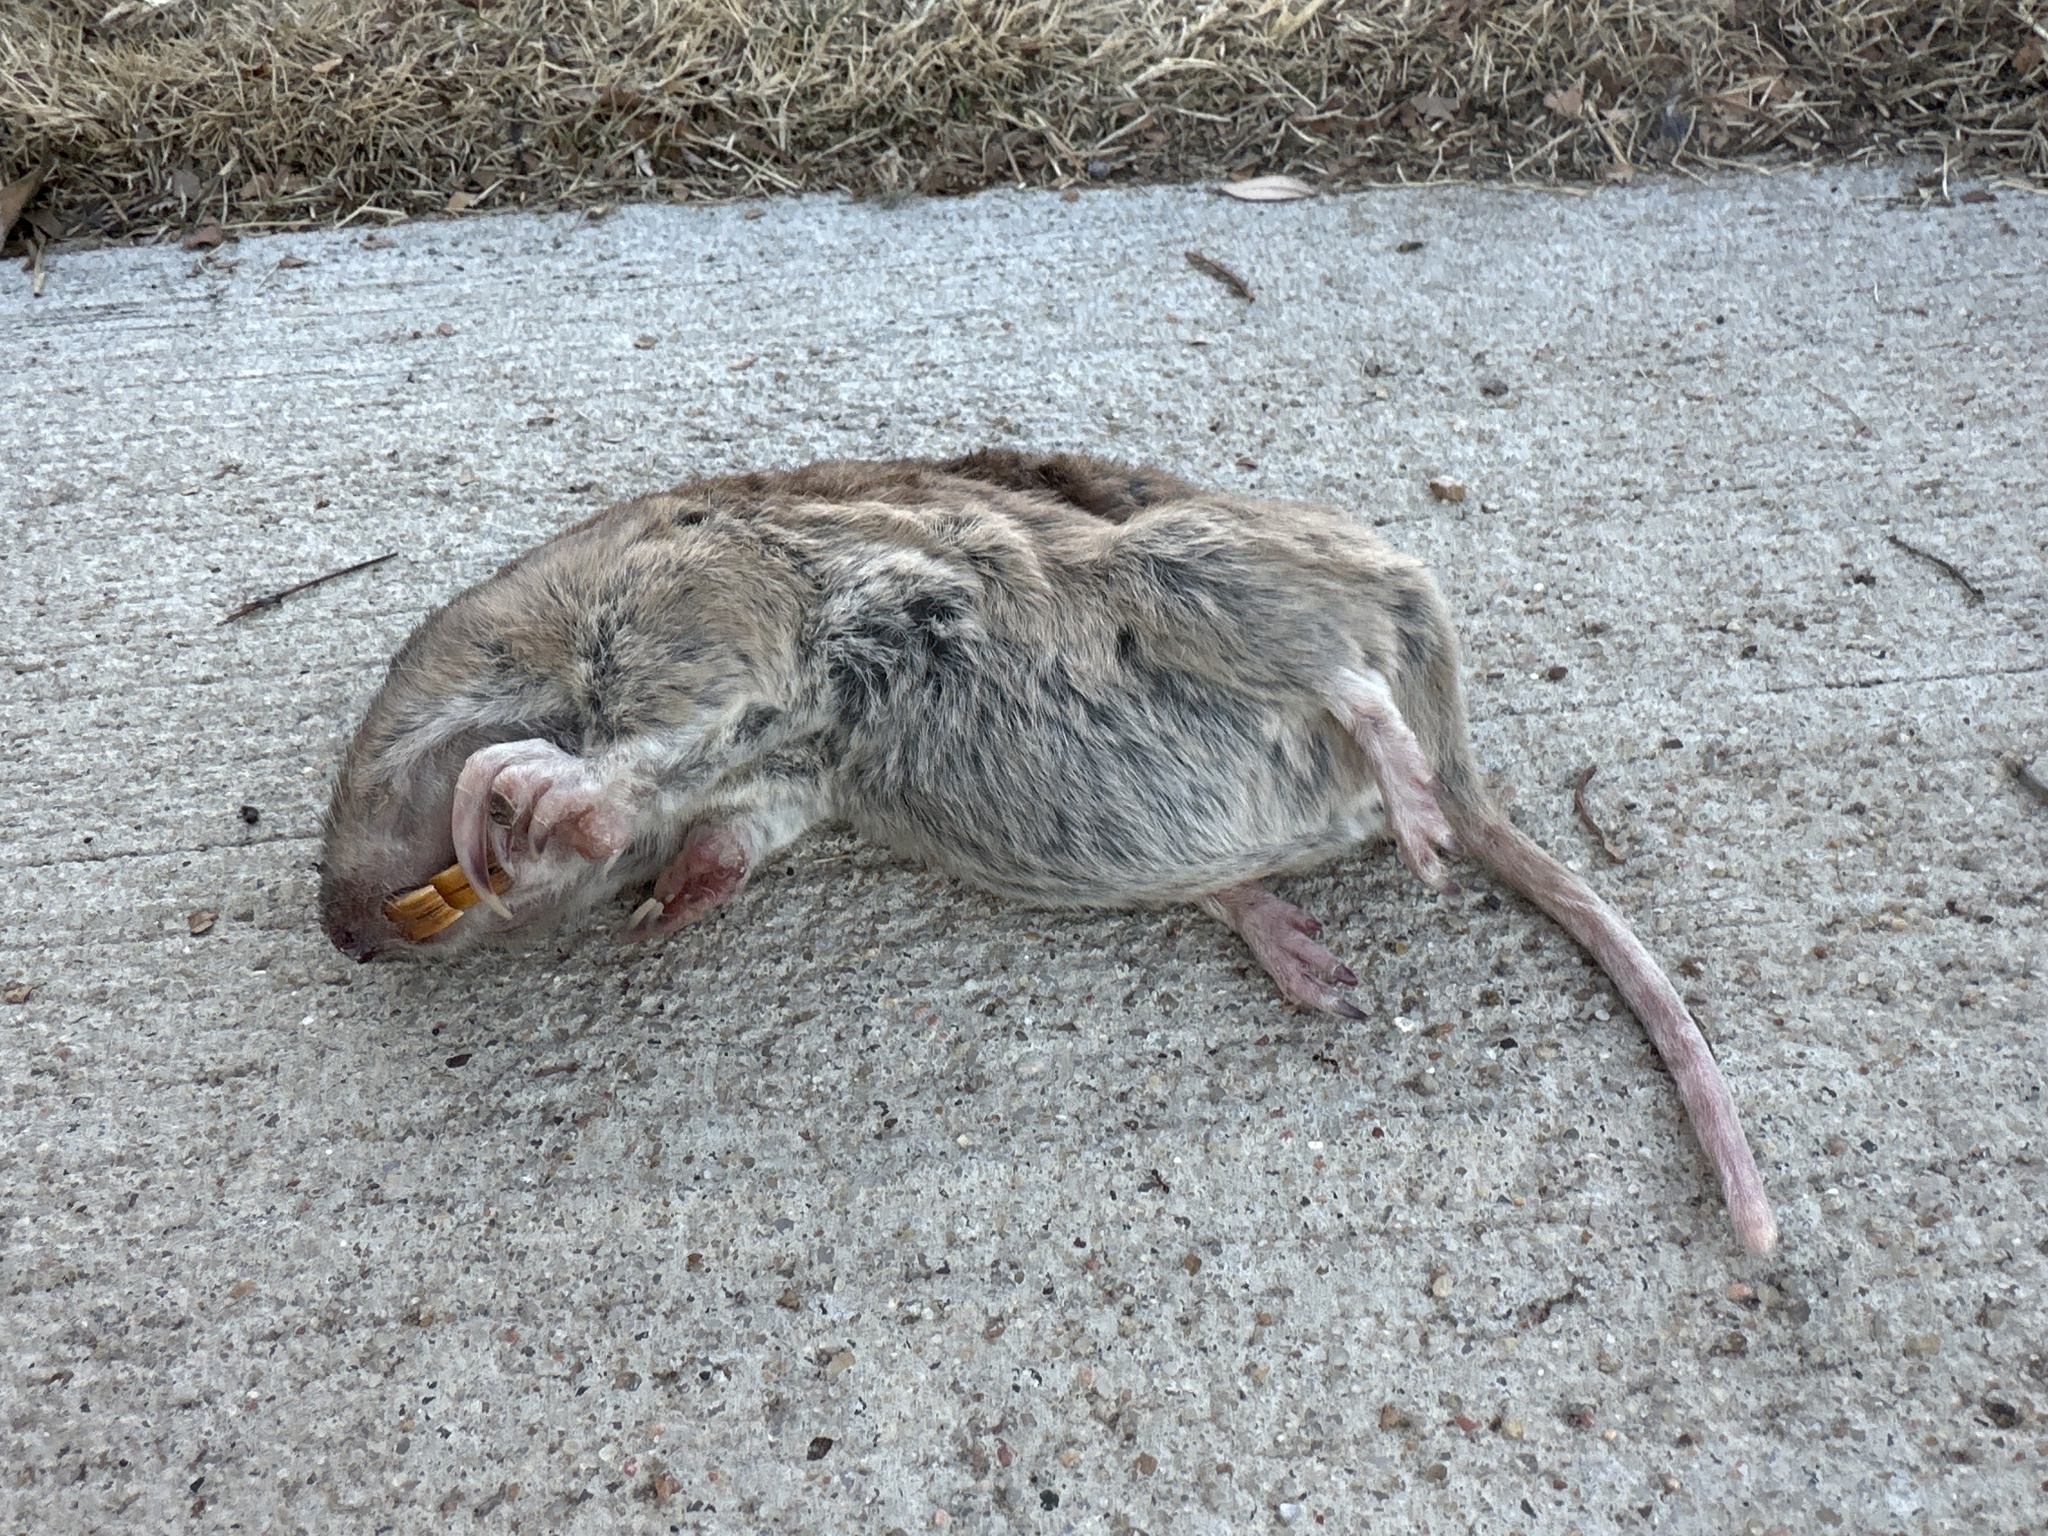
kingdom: Animalia
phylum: Chordata
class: Mammalia
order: Rodentia
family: Geomyidae
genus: Geomys
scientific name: Geomys bursarius
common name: Plains pocket gopher
